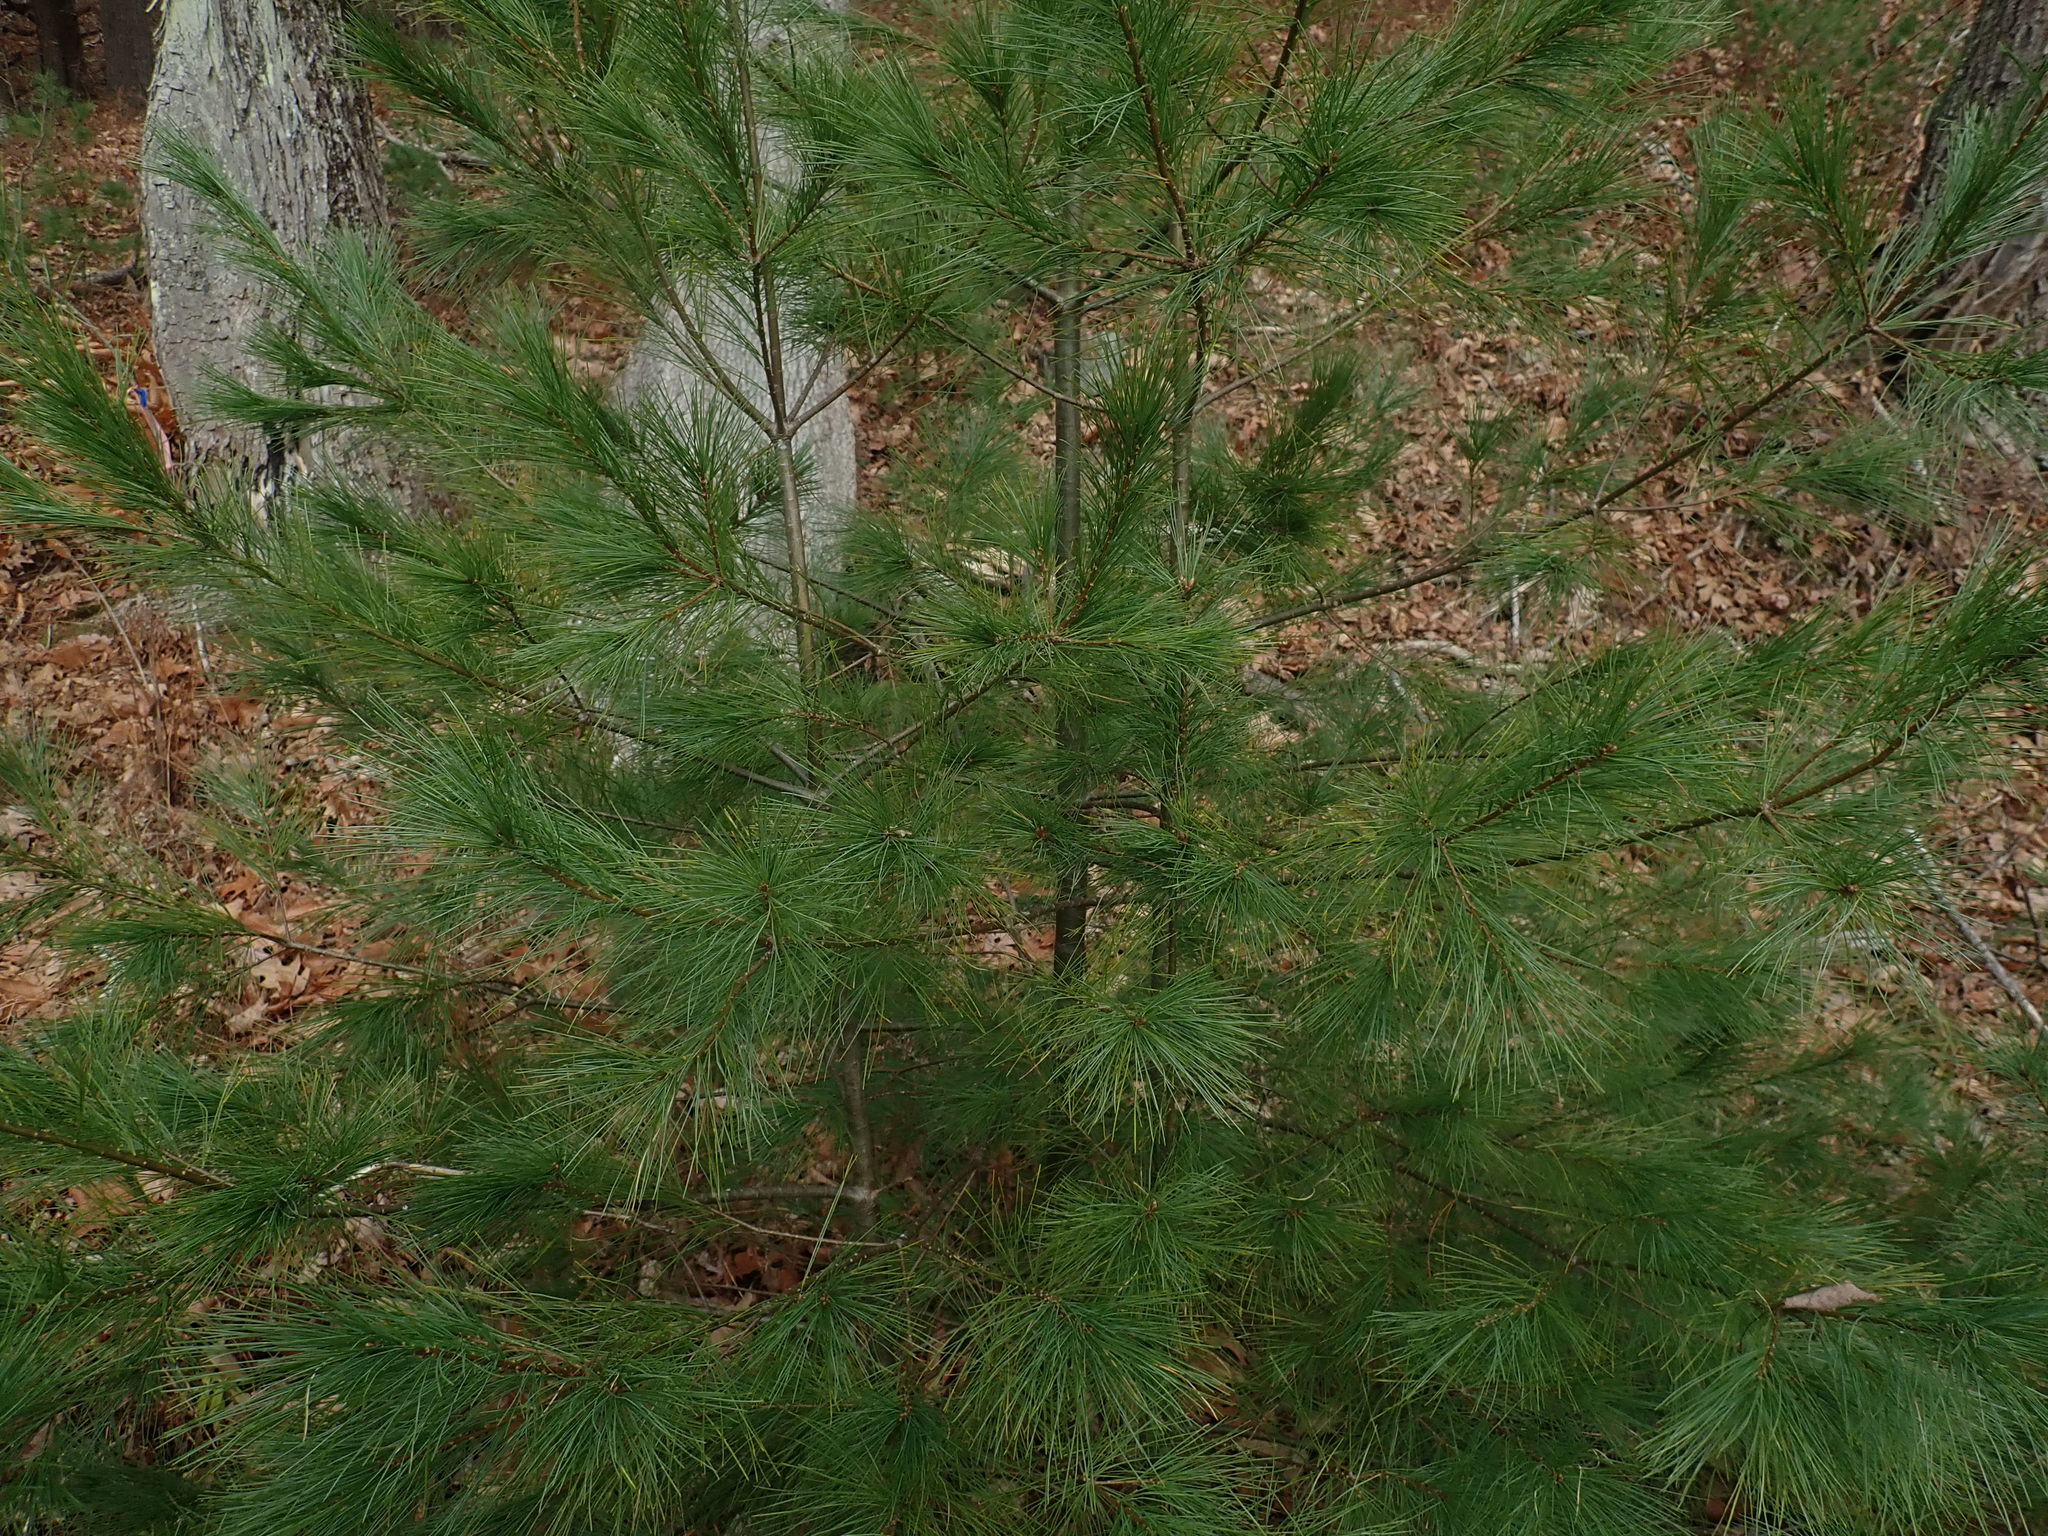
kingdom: Plantae
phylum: Tracheophyta
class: Pinopsida
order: Pinales
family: Pinaceae
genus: Pinus
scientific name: Pinus strobus
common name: Weymouth pine
